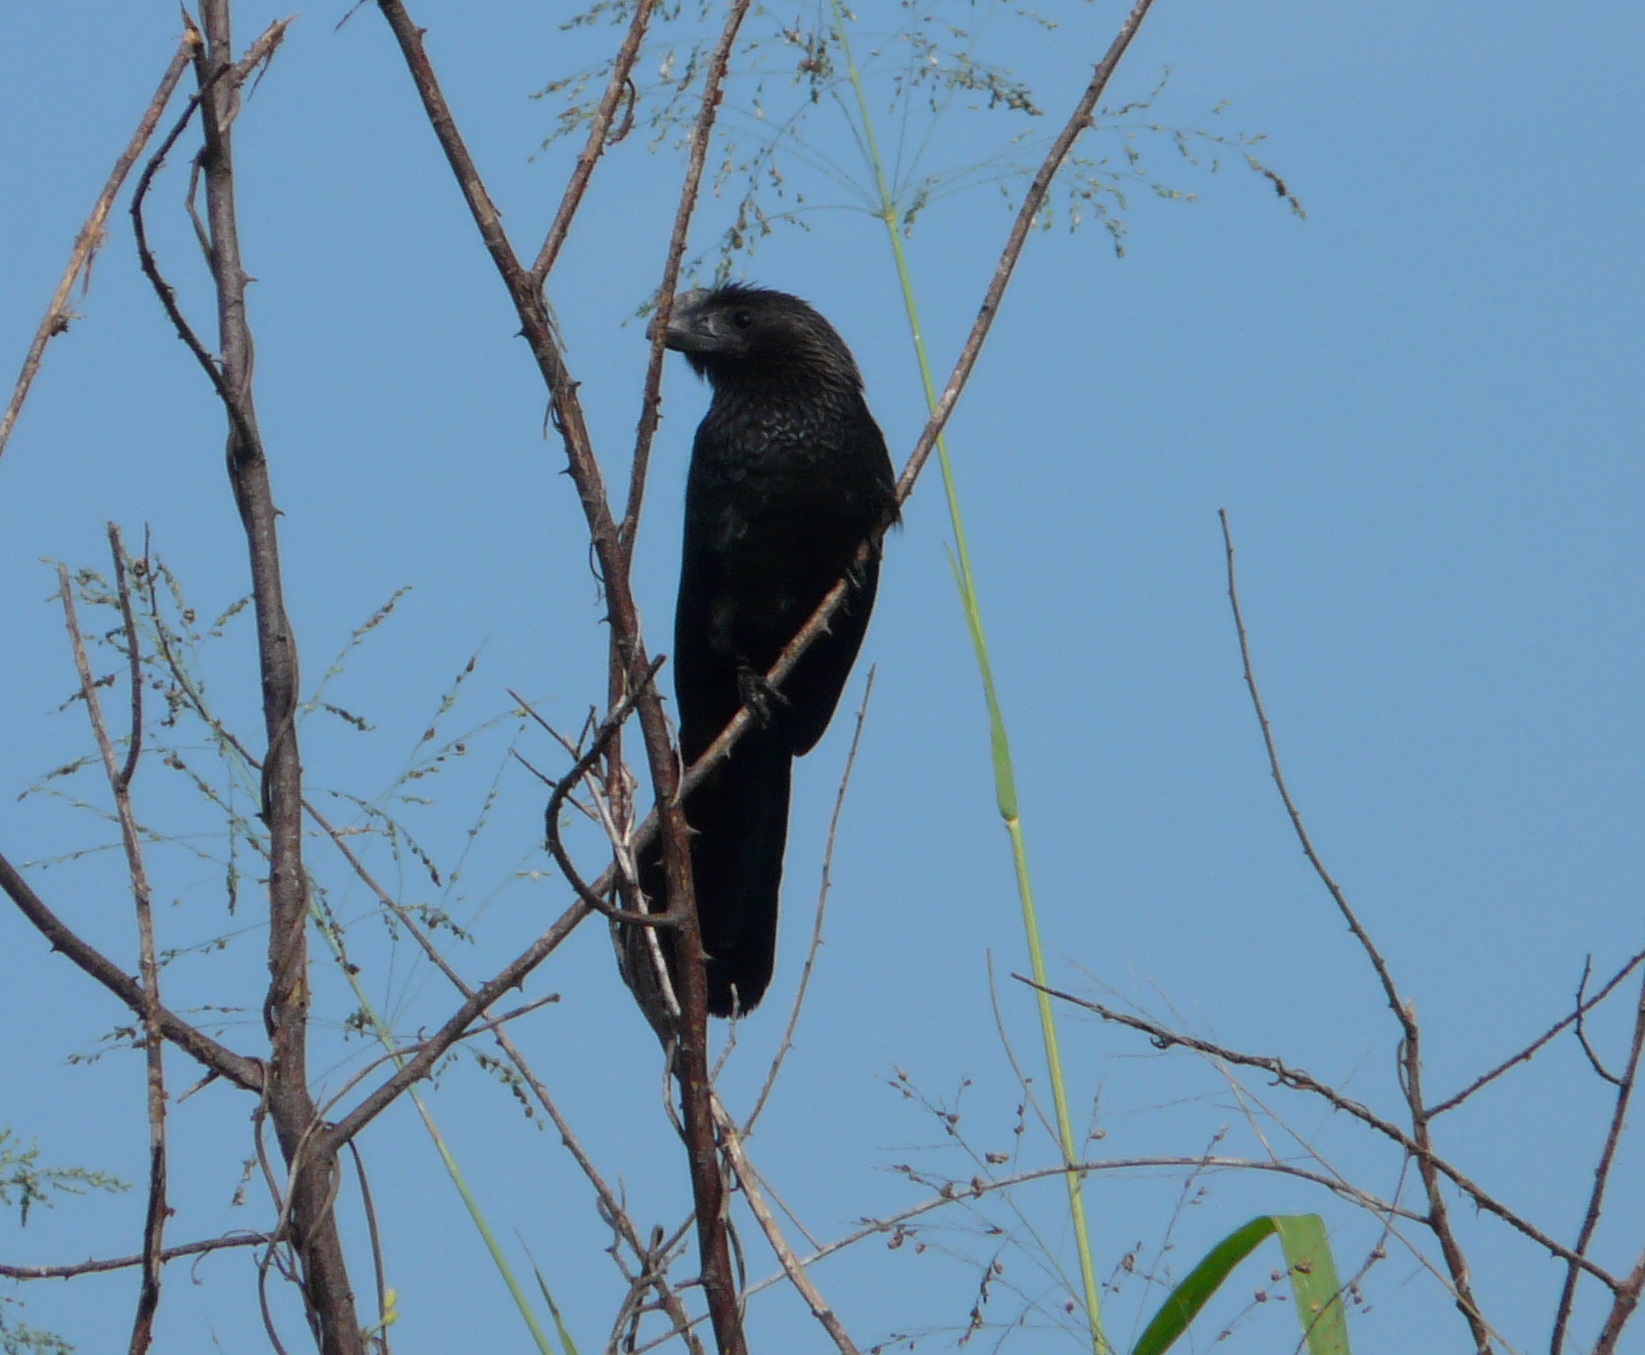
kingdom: Animalia
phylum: Chordata
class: Aves
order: Cuculiformes
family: Cuculidae
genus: Crotophaga
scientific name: Crotophaga ani
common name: Smooth-billed ani
